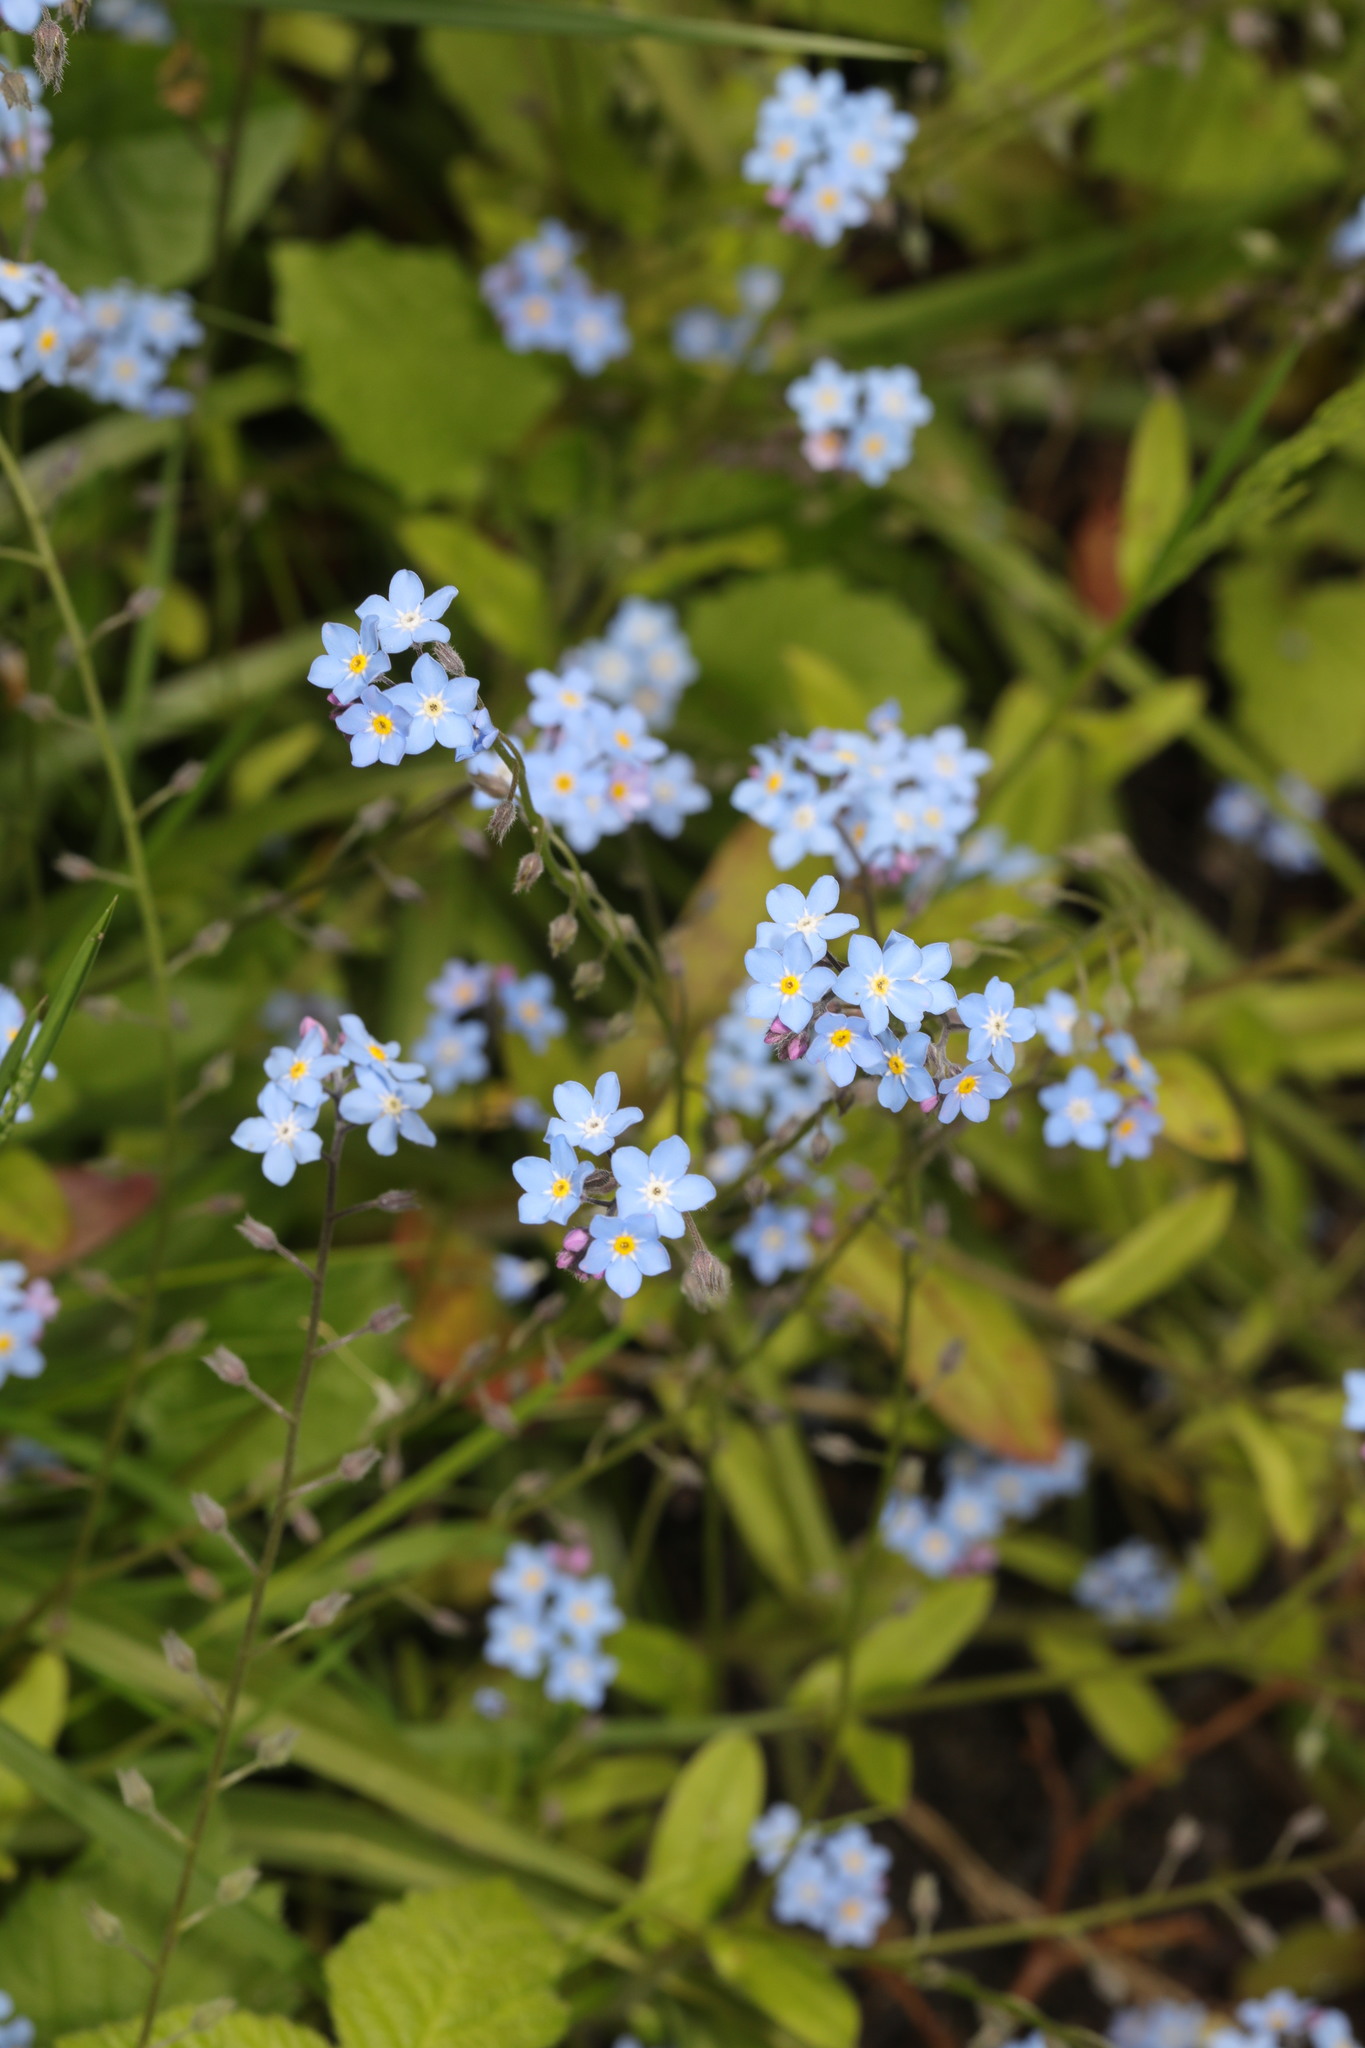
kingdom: Plantae
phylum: Tracheophyta
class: Magnoliopsida
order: Boraginales
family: Boraginaceae
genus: Myosotis
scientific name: Myosotis sylvatica
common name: Wood forget-me-not
